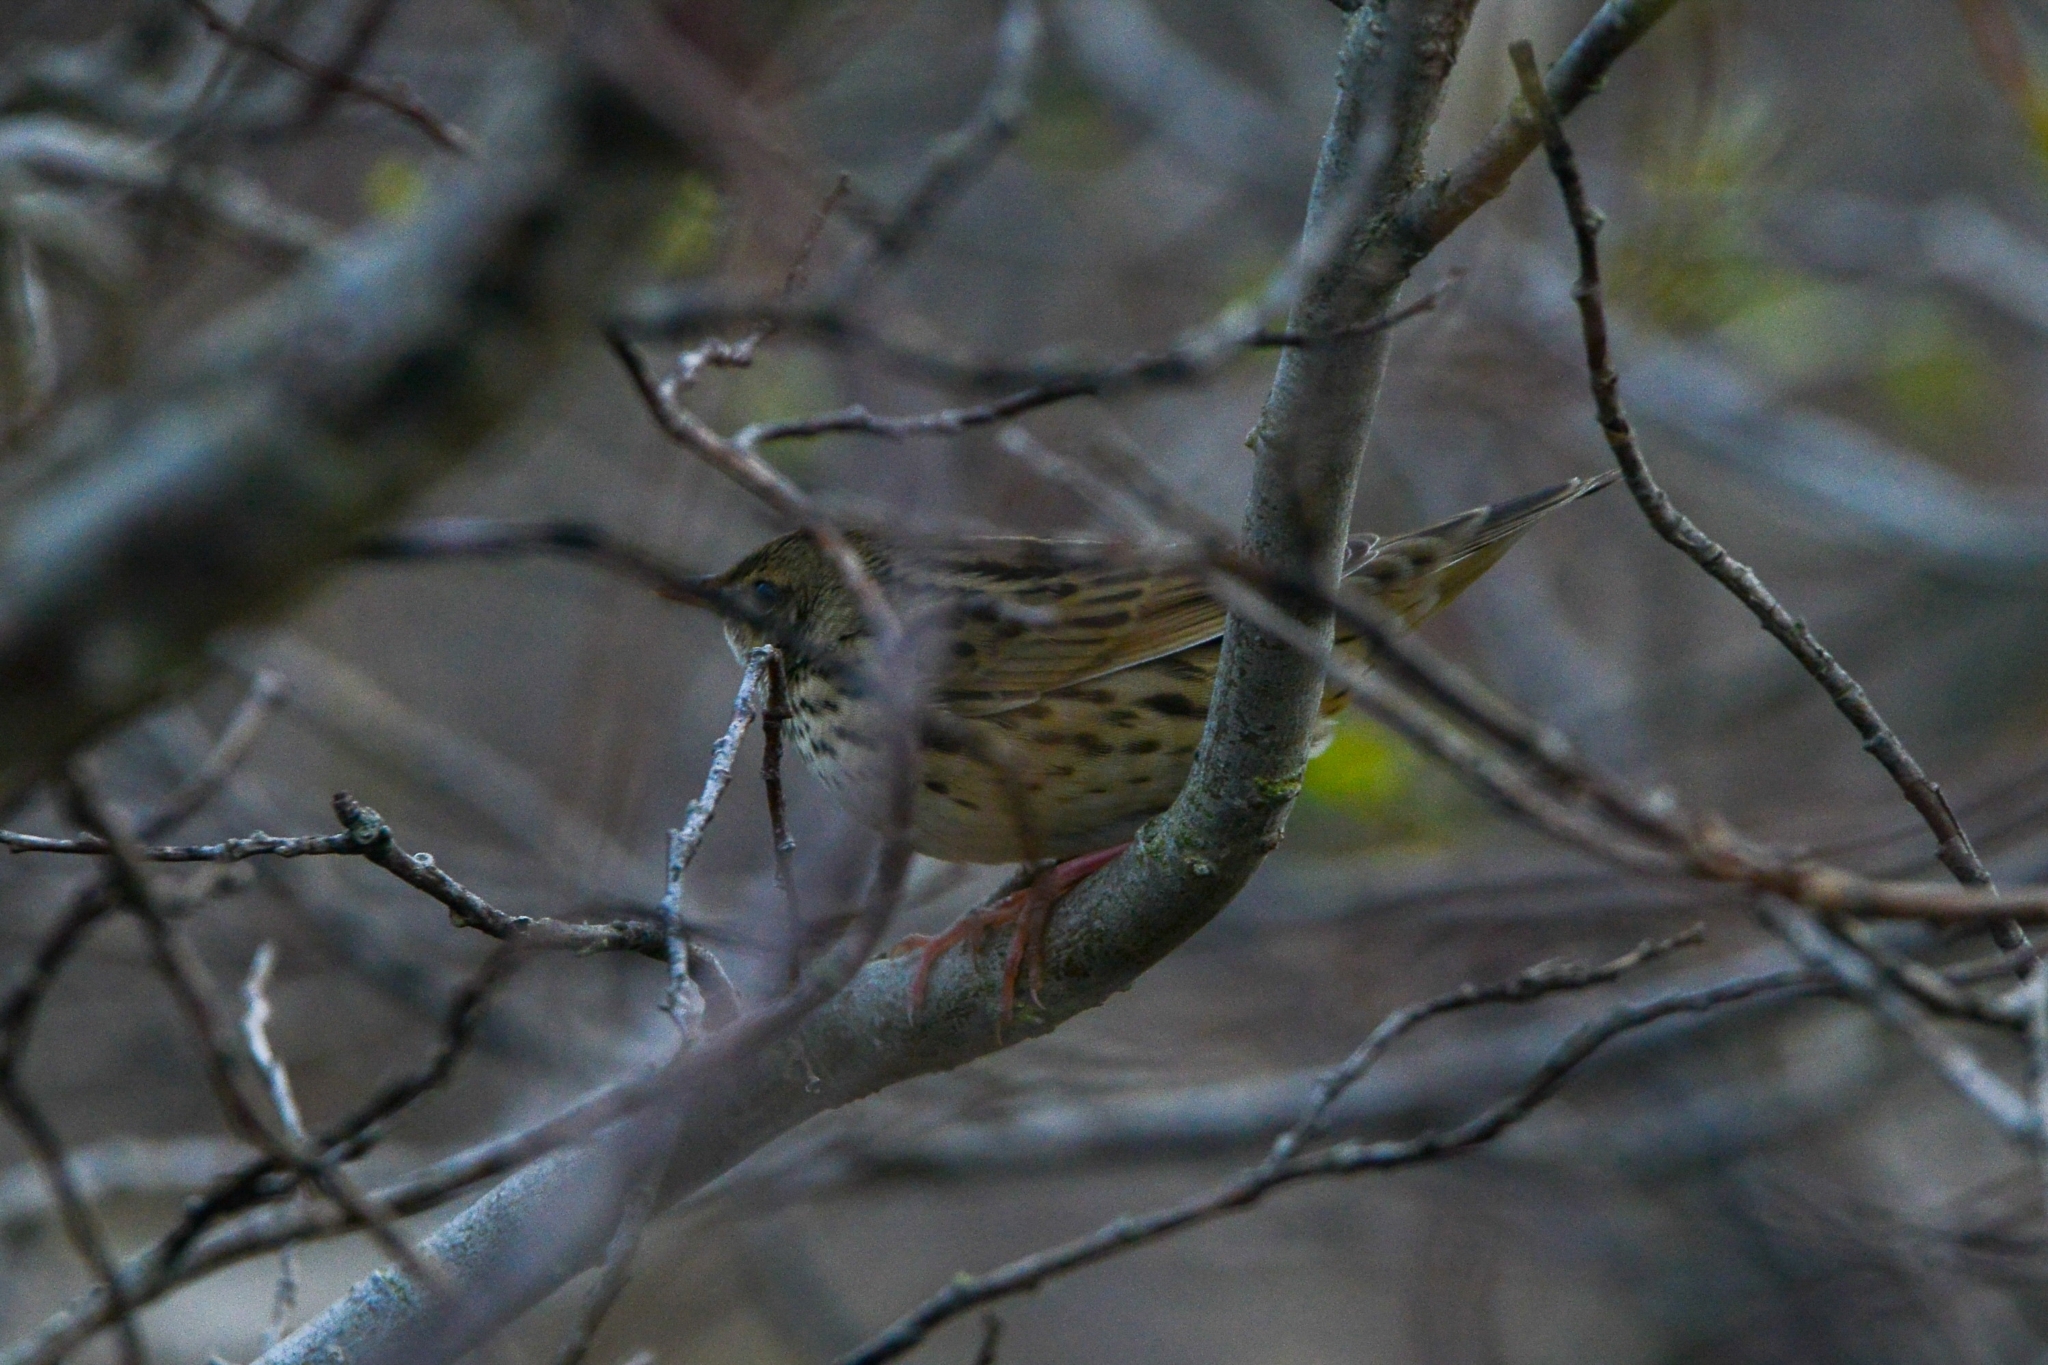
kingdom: Animalia
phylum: Chordata
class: Aves
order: Passeriformes
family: Locustellidae
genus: Locustella
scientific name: Locustella lanceolata
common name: Lanceolated warbler
